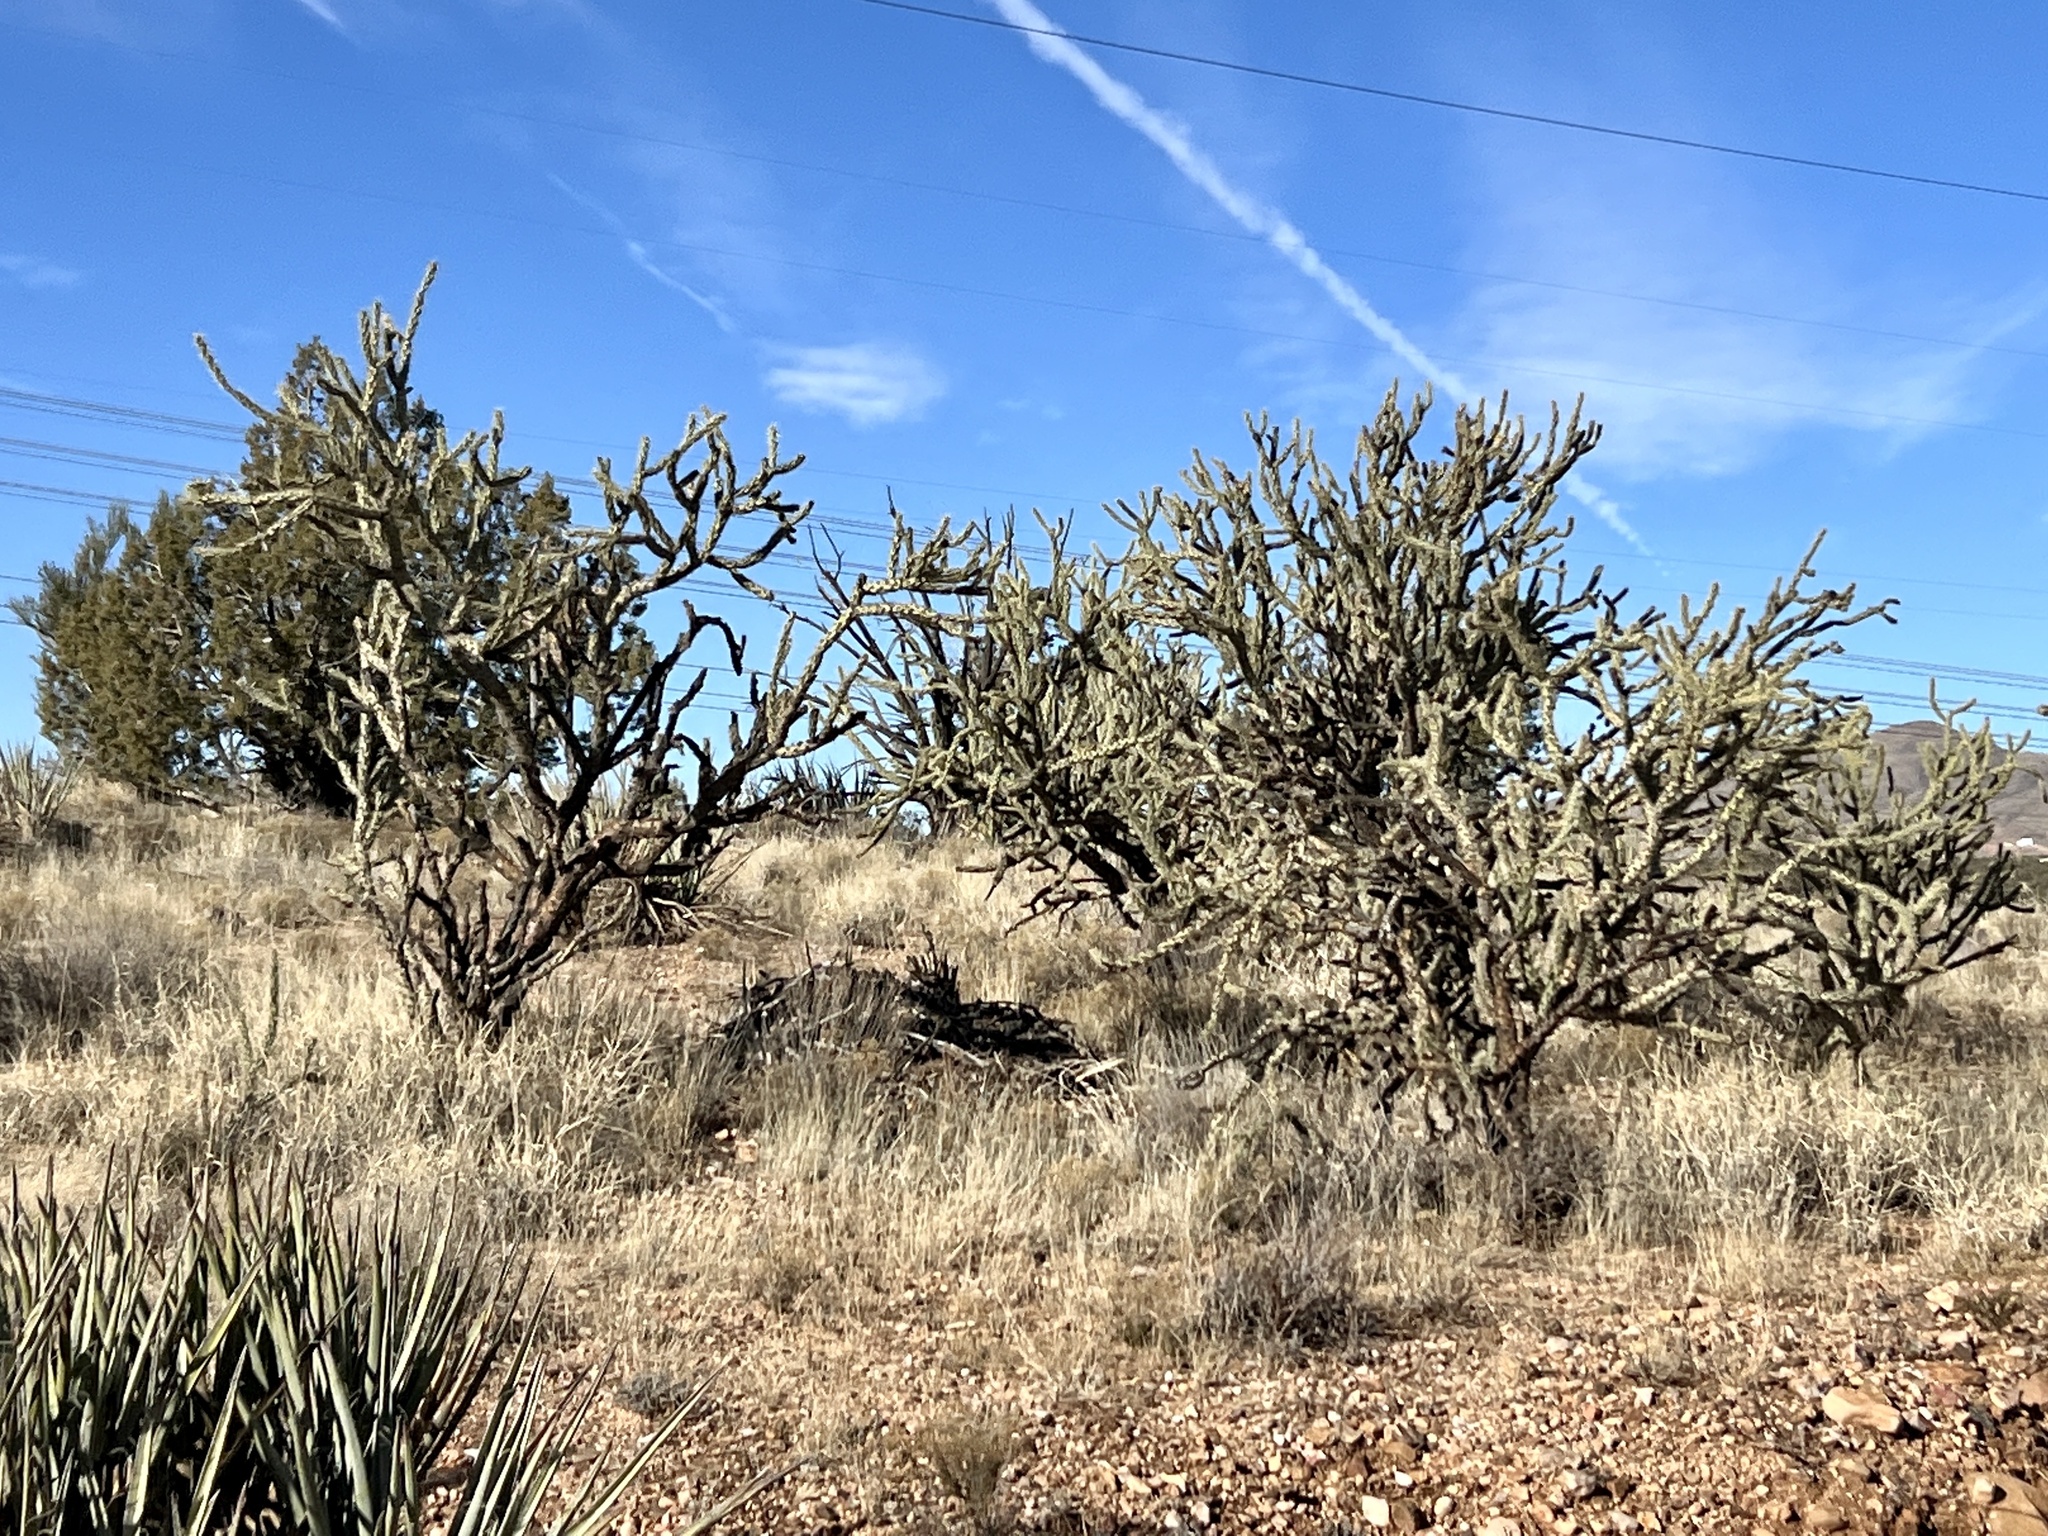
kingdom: Plantae
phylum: Tracheophyta
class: Magnoliopsida
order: Caryophyllales
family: Cactaceae
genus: Cylindropuntia
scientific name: Cylindropuntia acanthocarpa
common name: Buckhorn cholla
